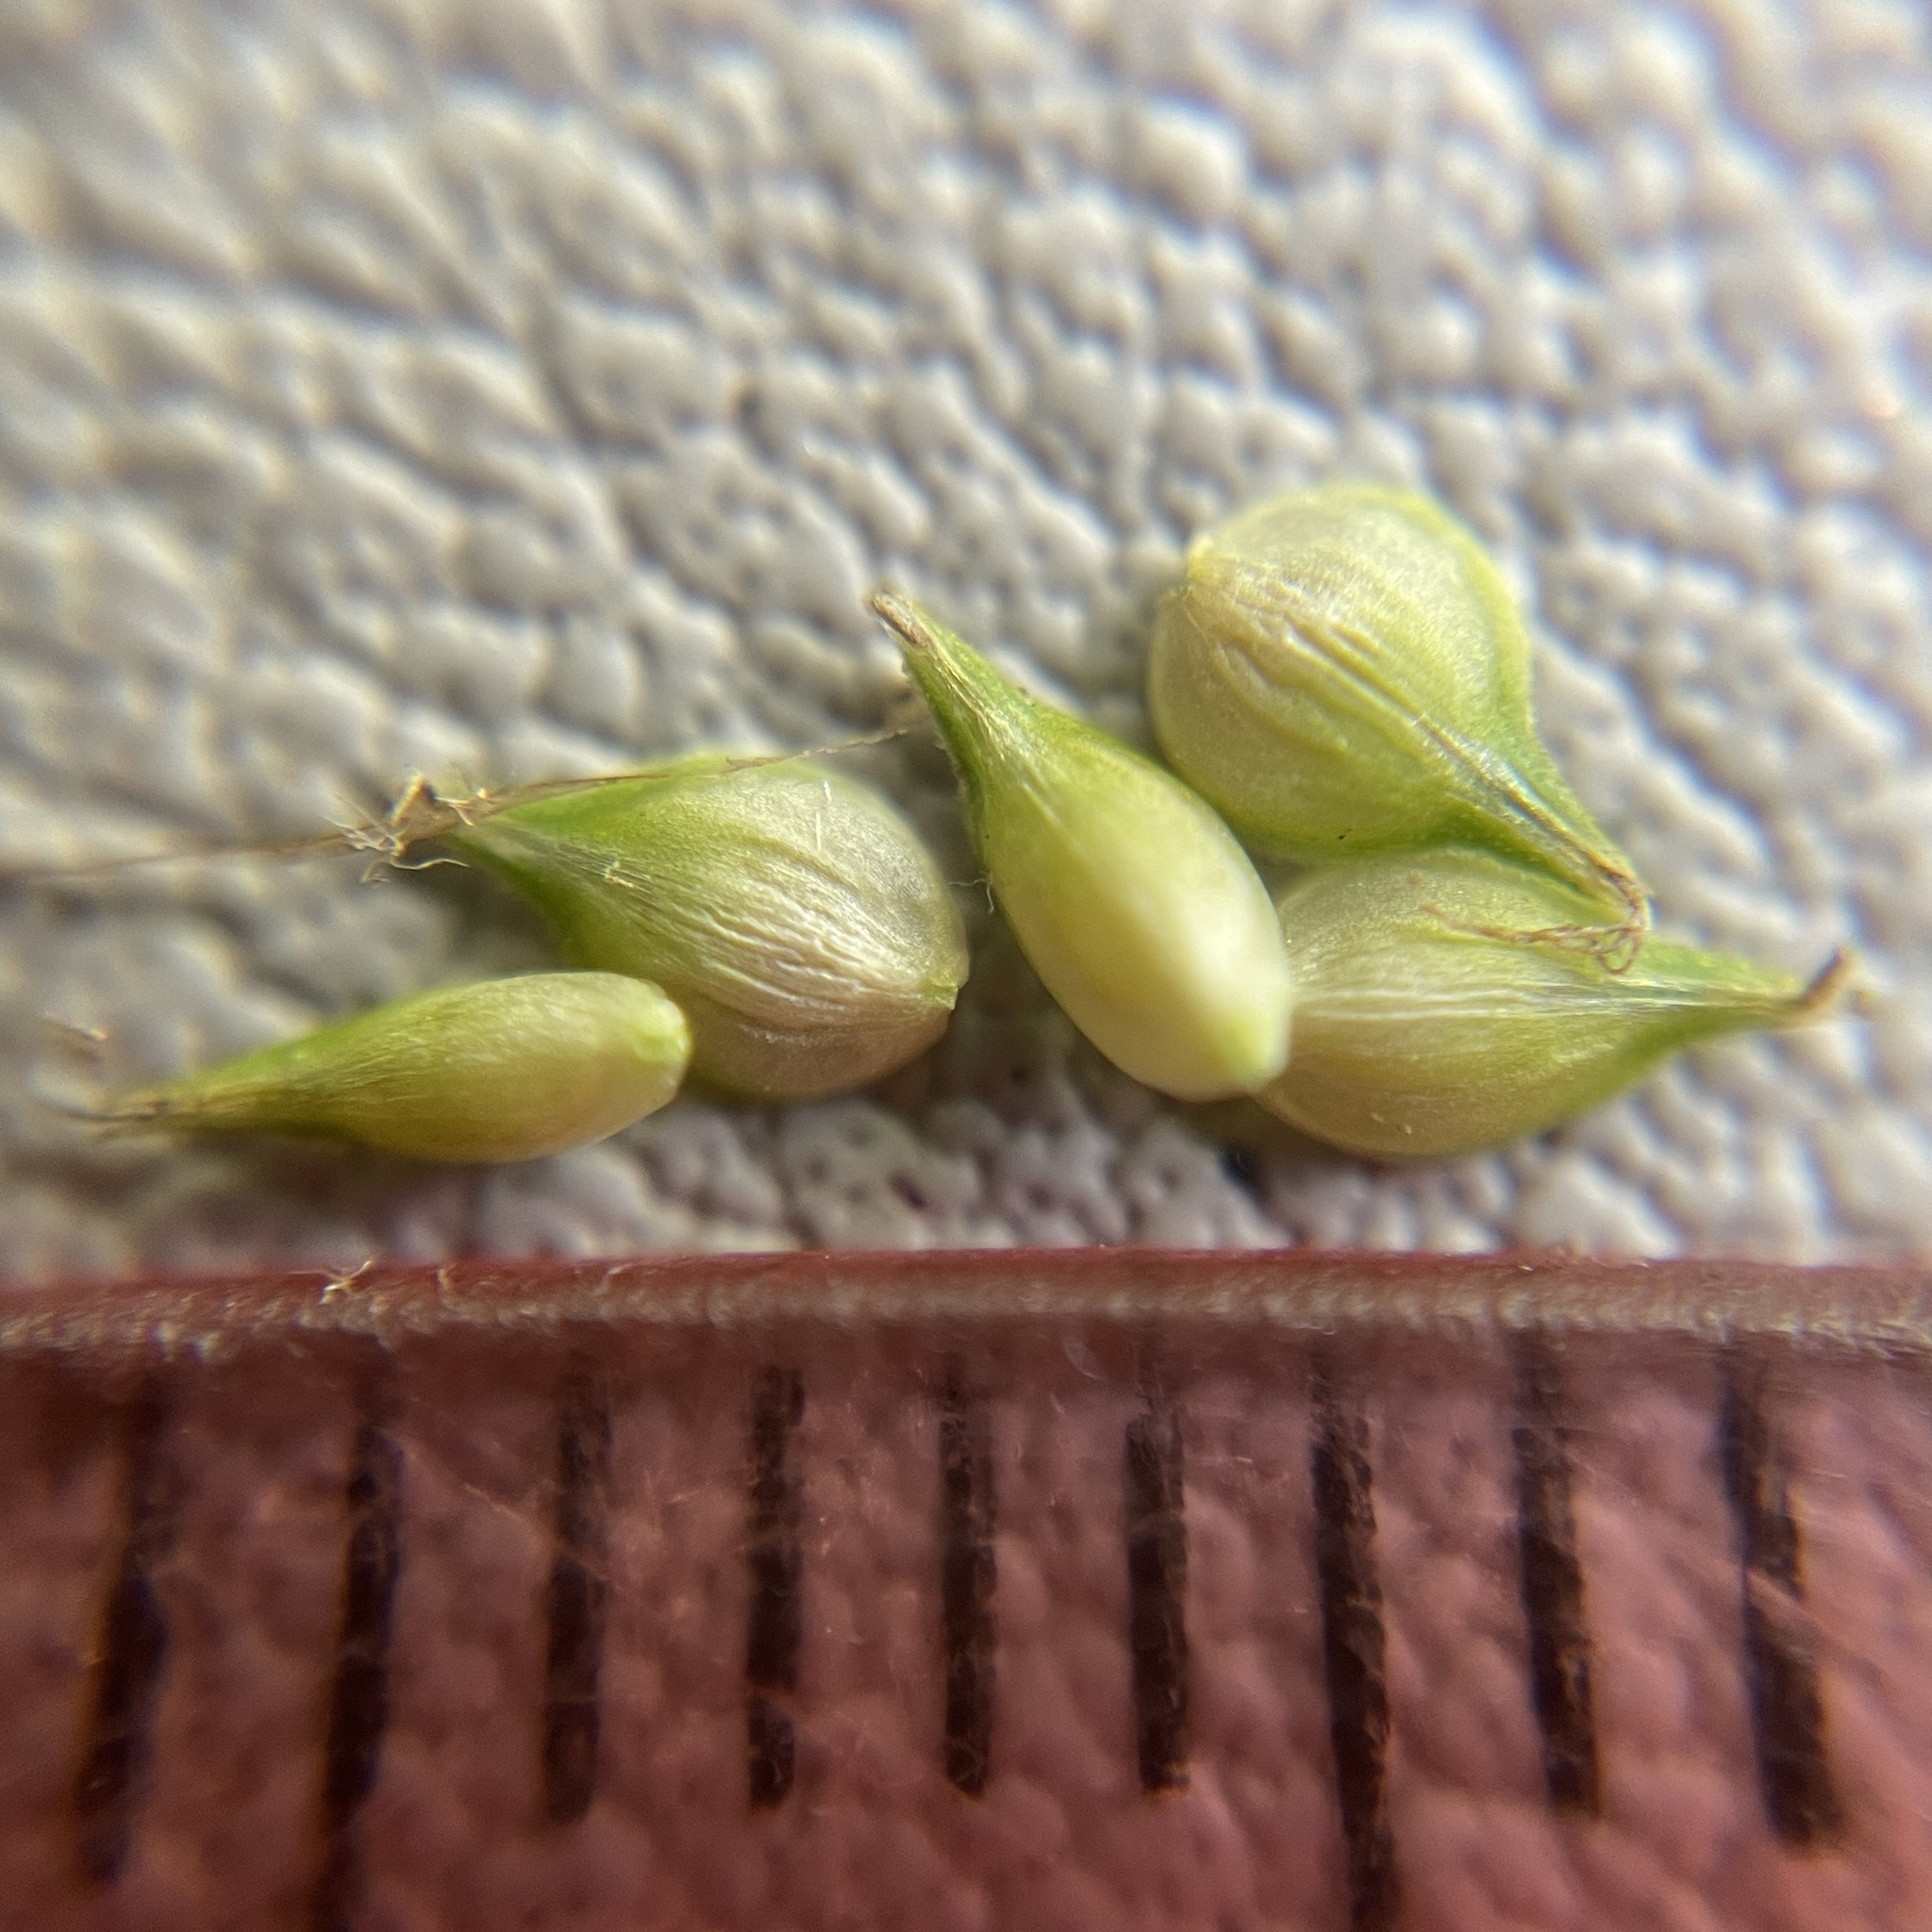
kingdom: Plantae
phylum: Tracheophyta
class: Liliopsida
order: Poales
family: Cyperaceae
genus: Carex
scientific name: Carex festucacea
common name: Fescue oval sedge
